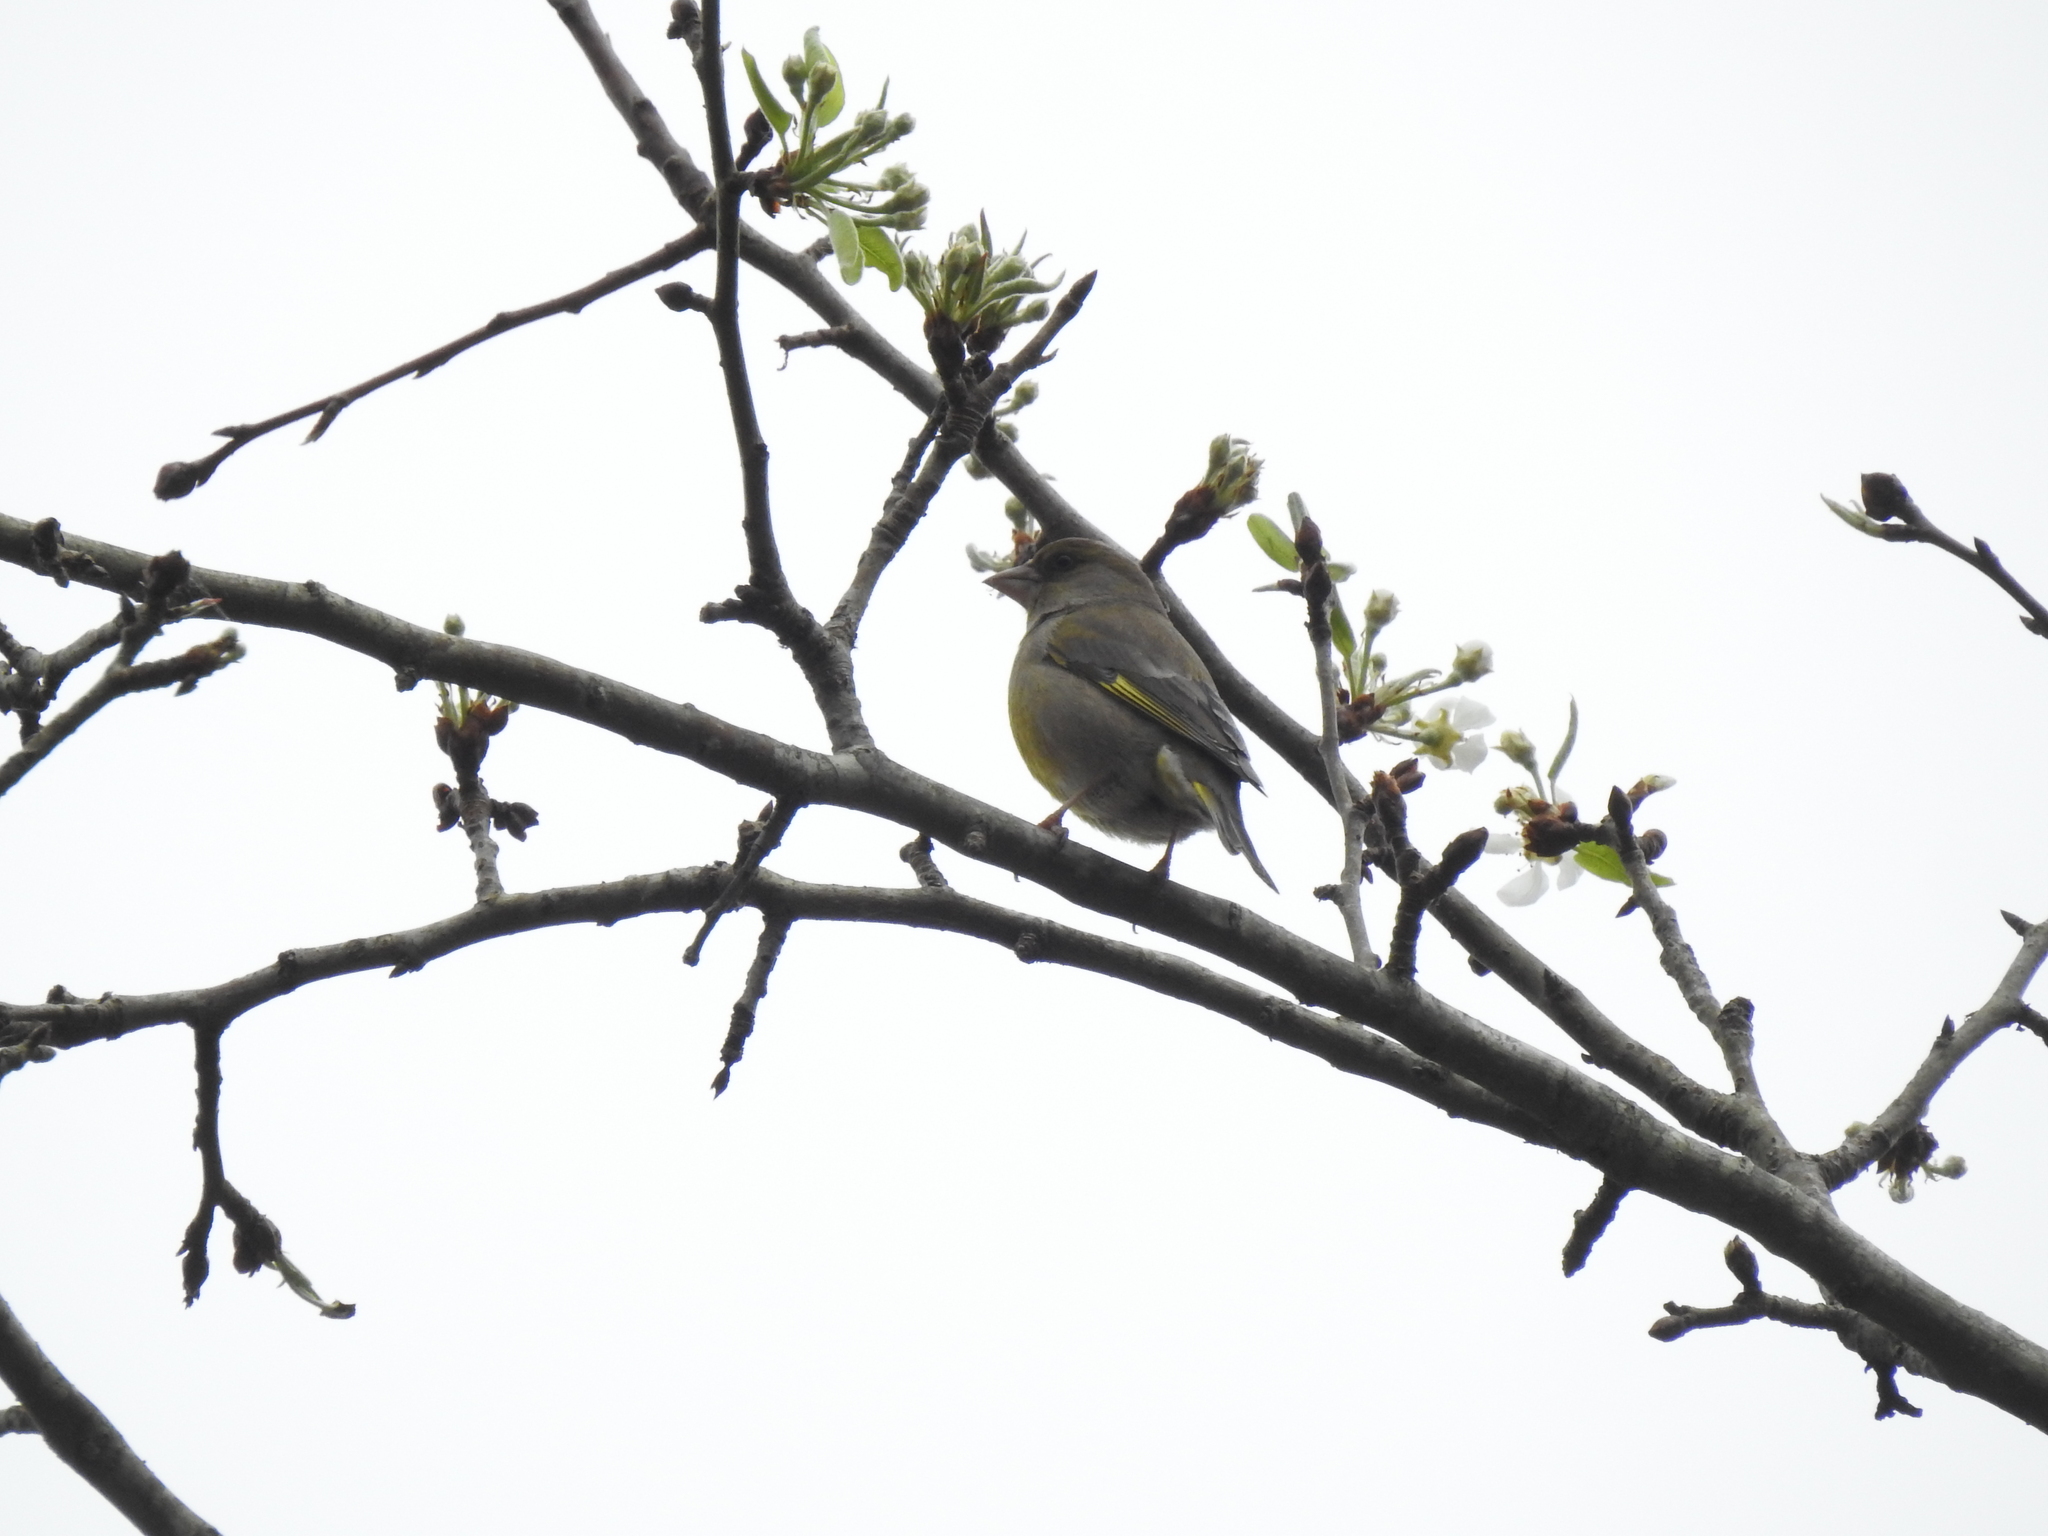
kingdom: Plantae
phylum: Tracheophyta
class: Liliopsida
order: Poales
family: Poaceae
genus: Chloris
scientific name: Chloris chloris
